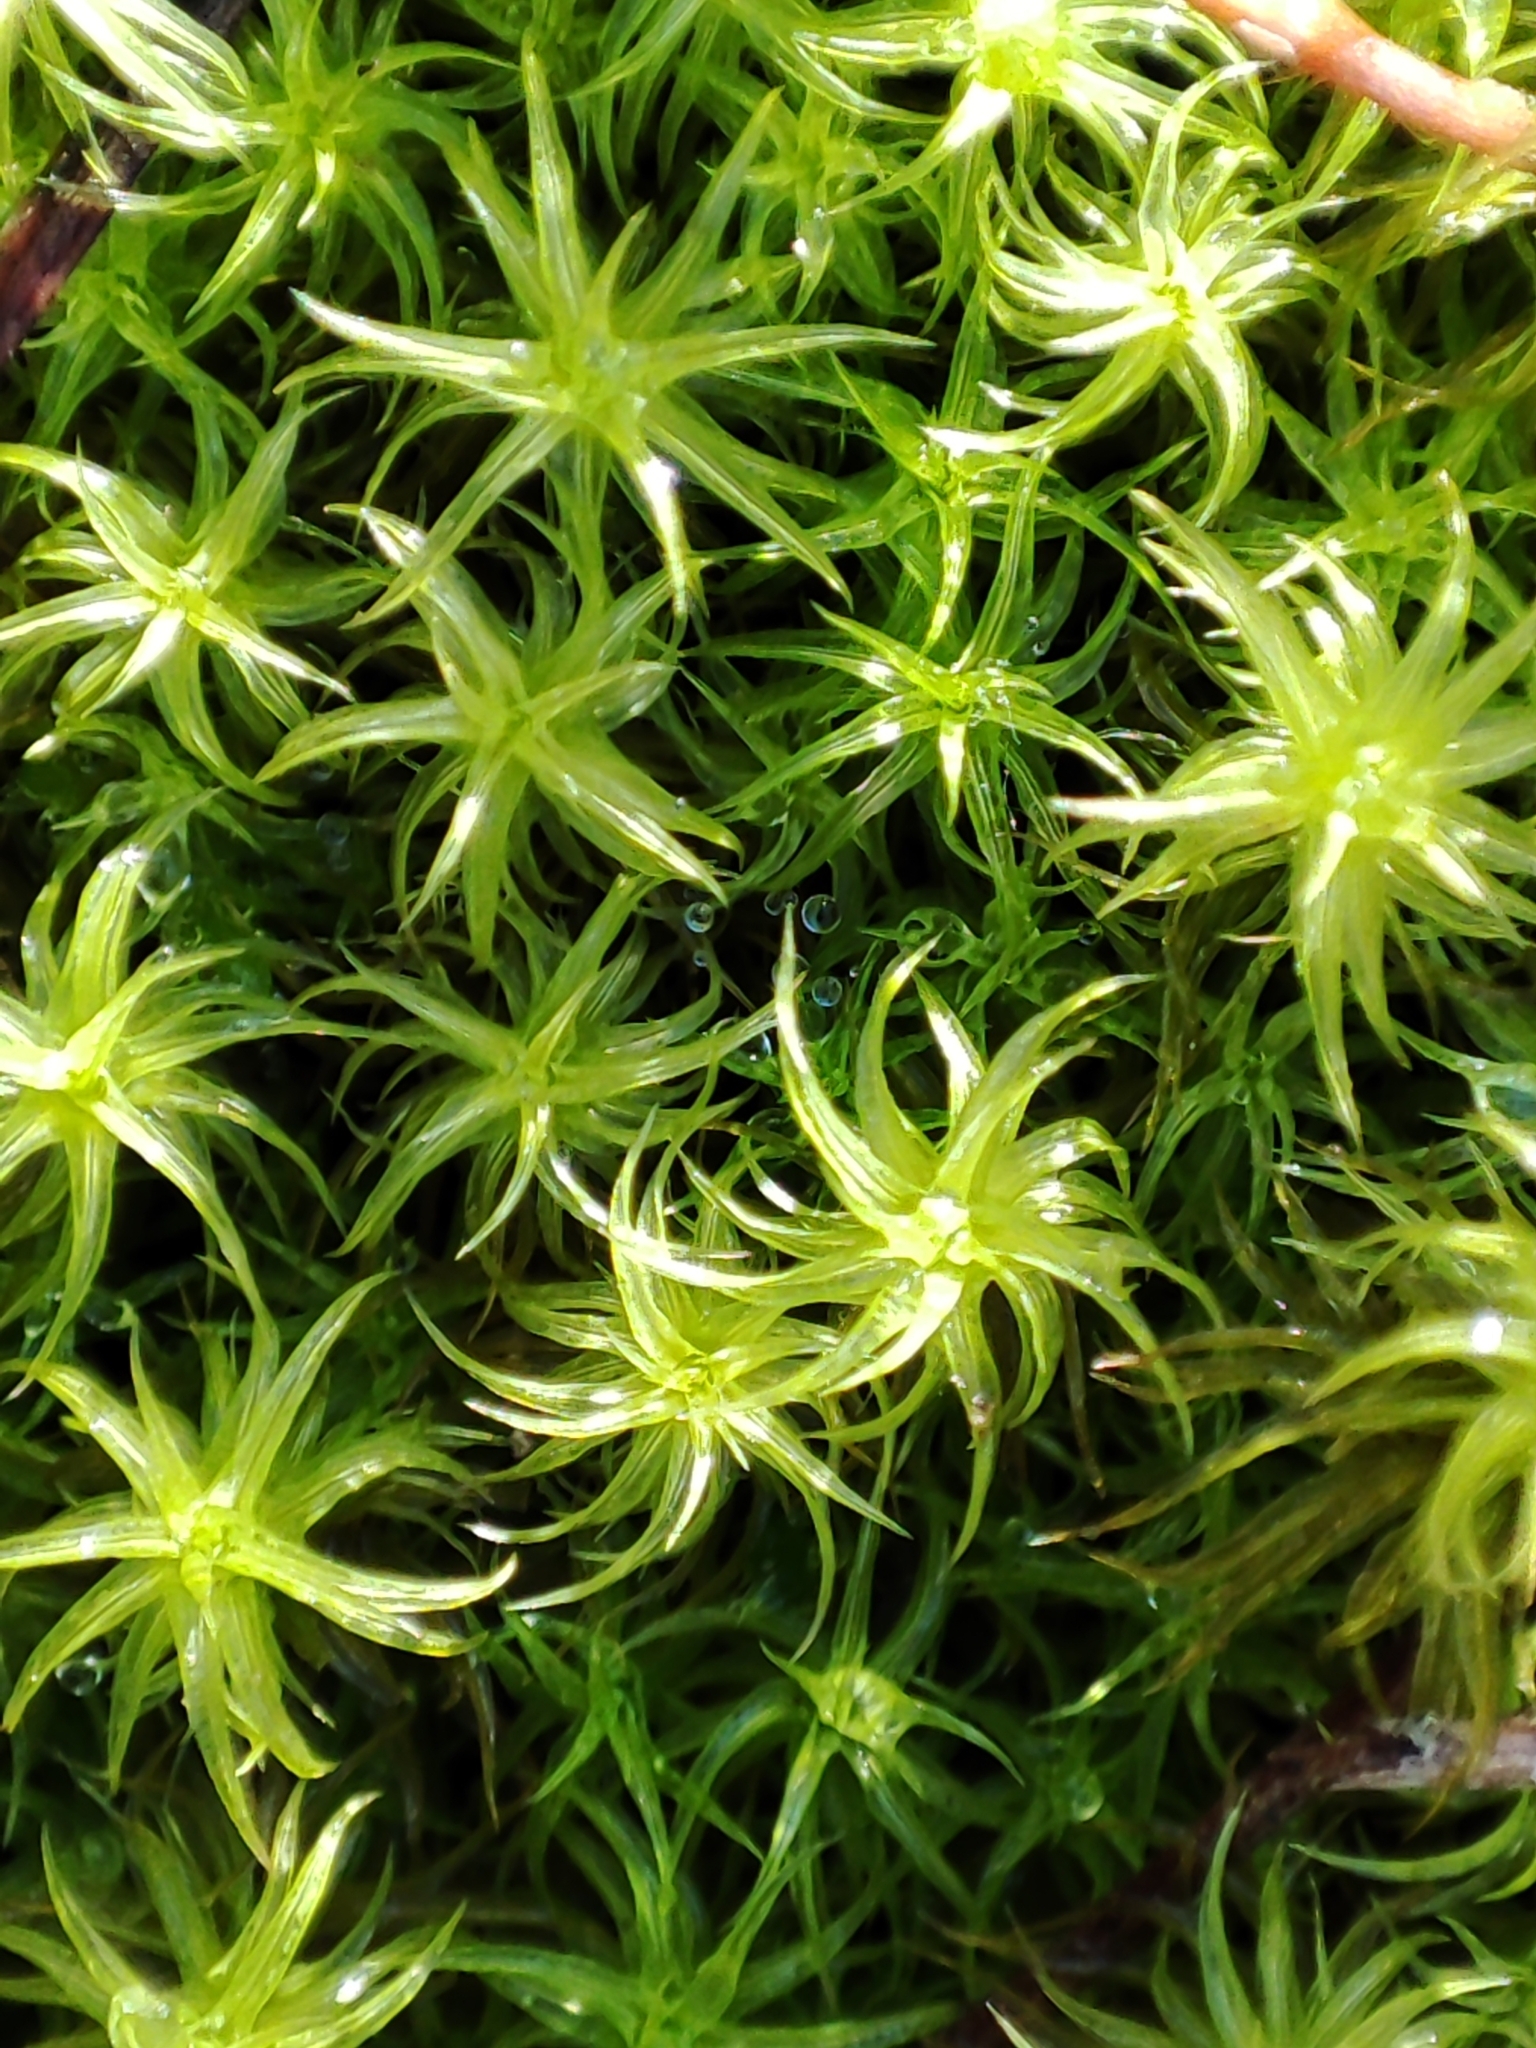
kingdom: Plantae
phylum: Bryophyta
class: Bryopsida
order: Pottiales
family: Pottiaceae
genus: Pleurochaete
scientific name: Pleurochaete squarrosa
